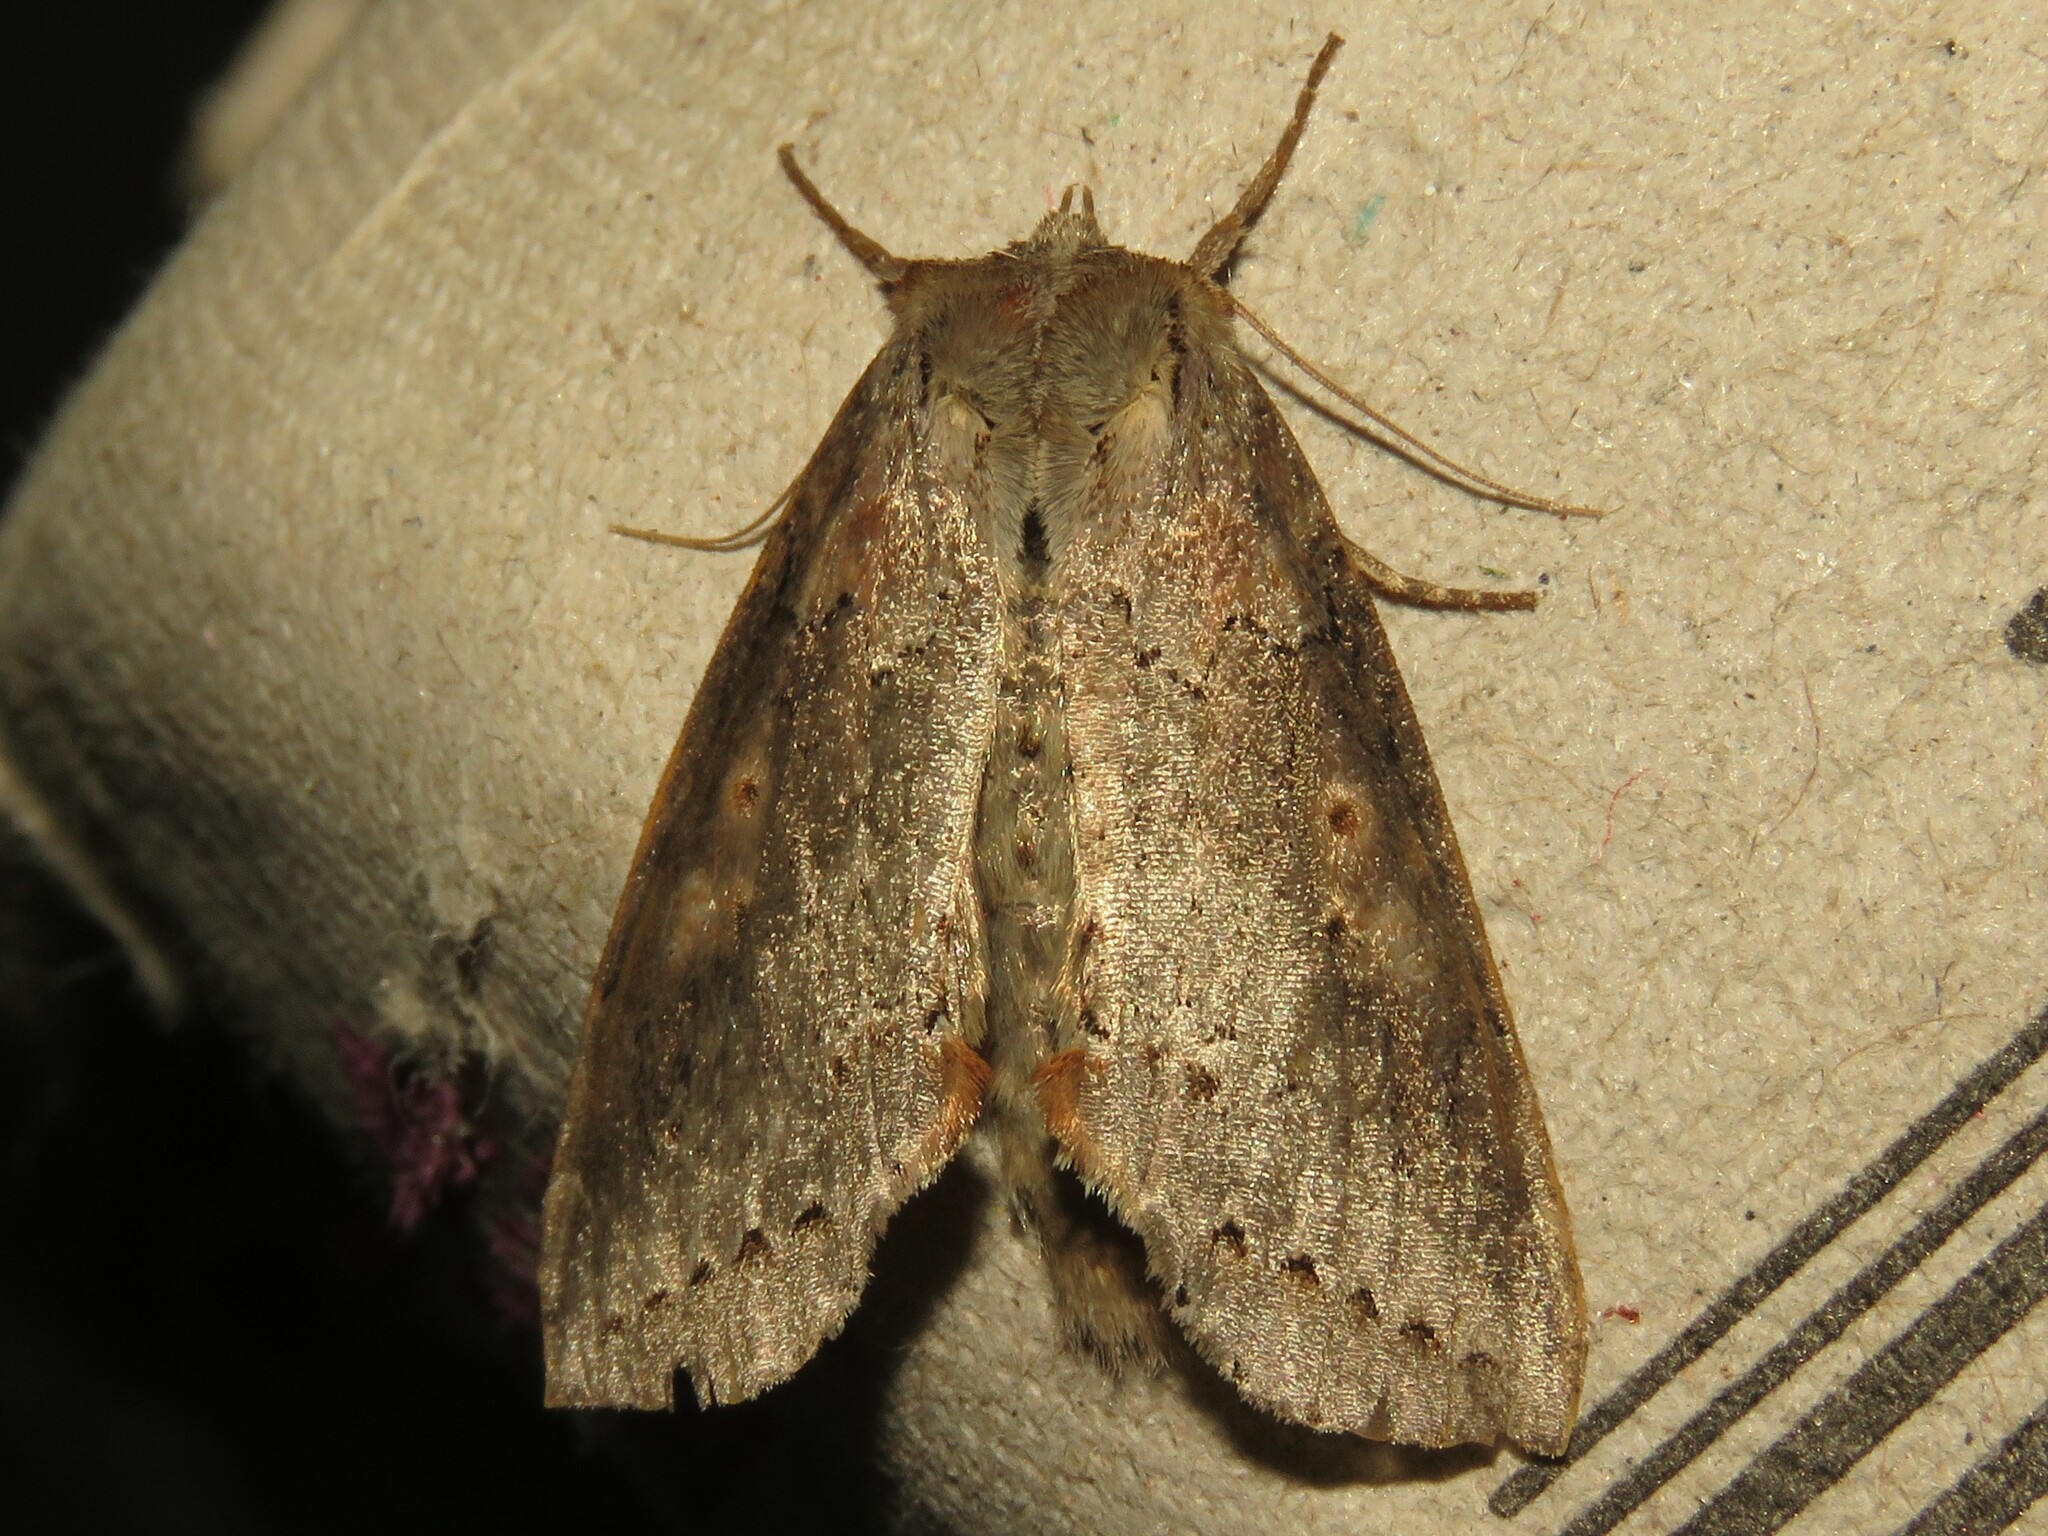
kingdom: Animalia
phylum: Arthropoda
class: Insecta
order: Lepidoptera
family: Drepanidae
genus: Pseudothyatira
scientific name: Pseudothyatira cymatophoroides
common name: Tufted thyatirid moth
